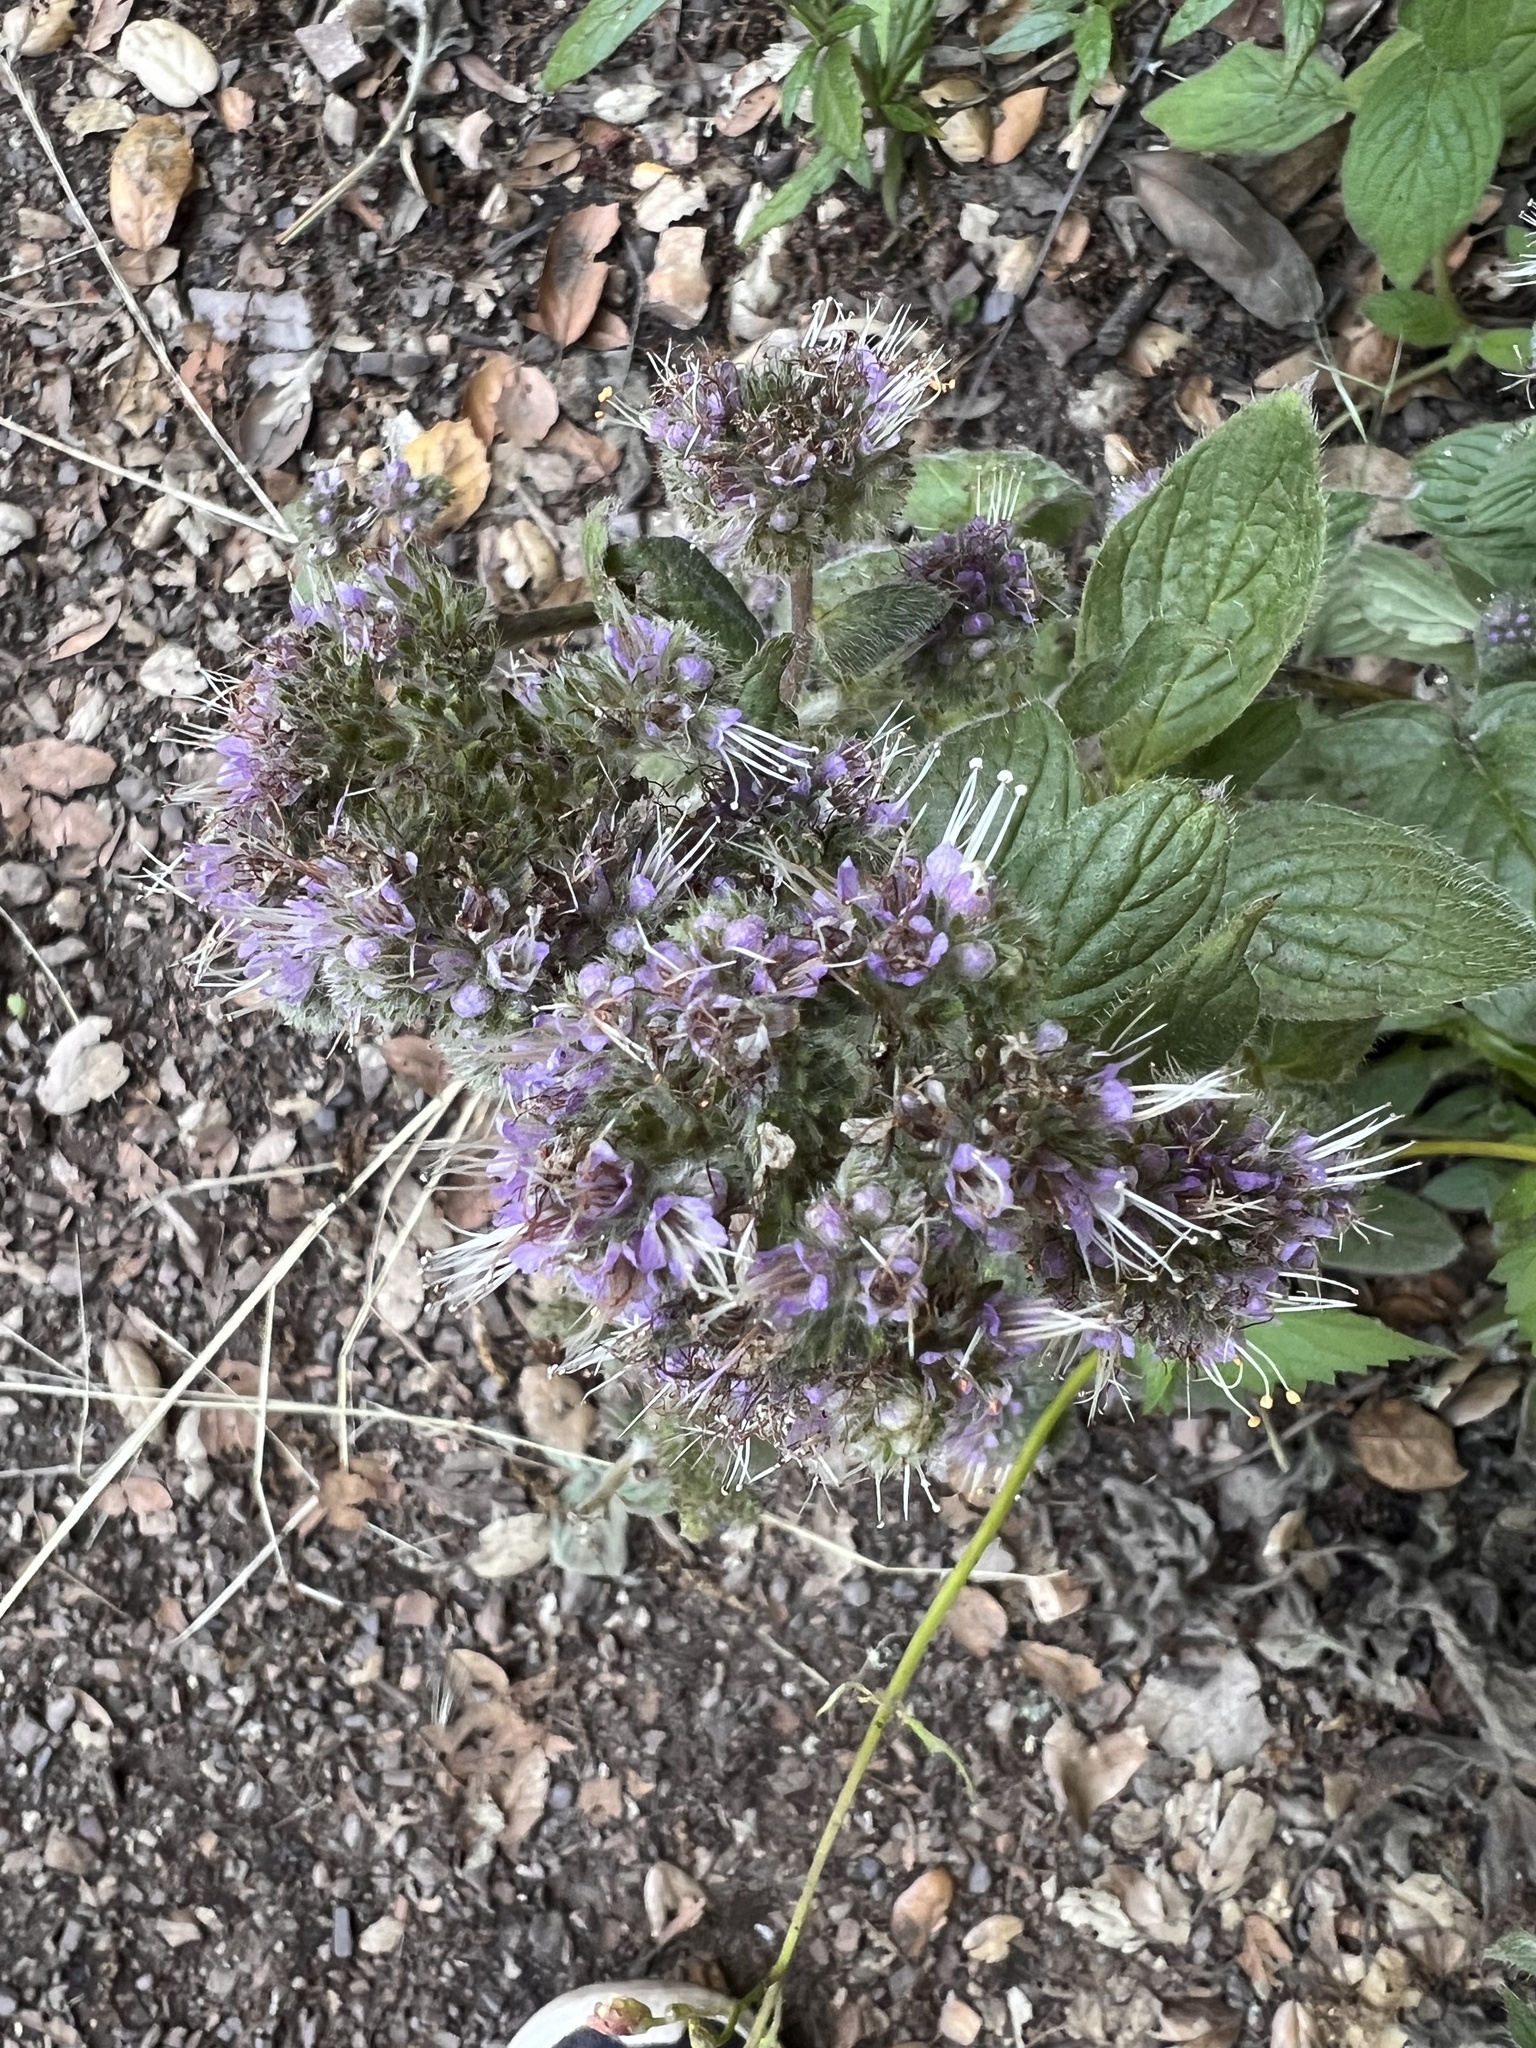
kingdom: Plantae
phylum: Tracheophyta
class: Magnoliopsida
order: Boraginales
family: Hydrophyllaceae
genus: Phacelia
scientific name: Phacelia californica
